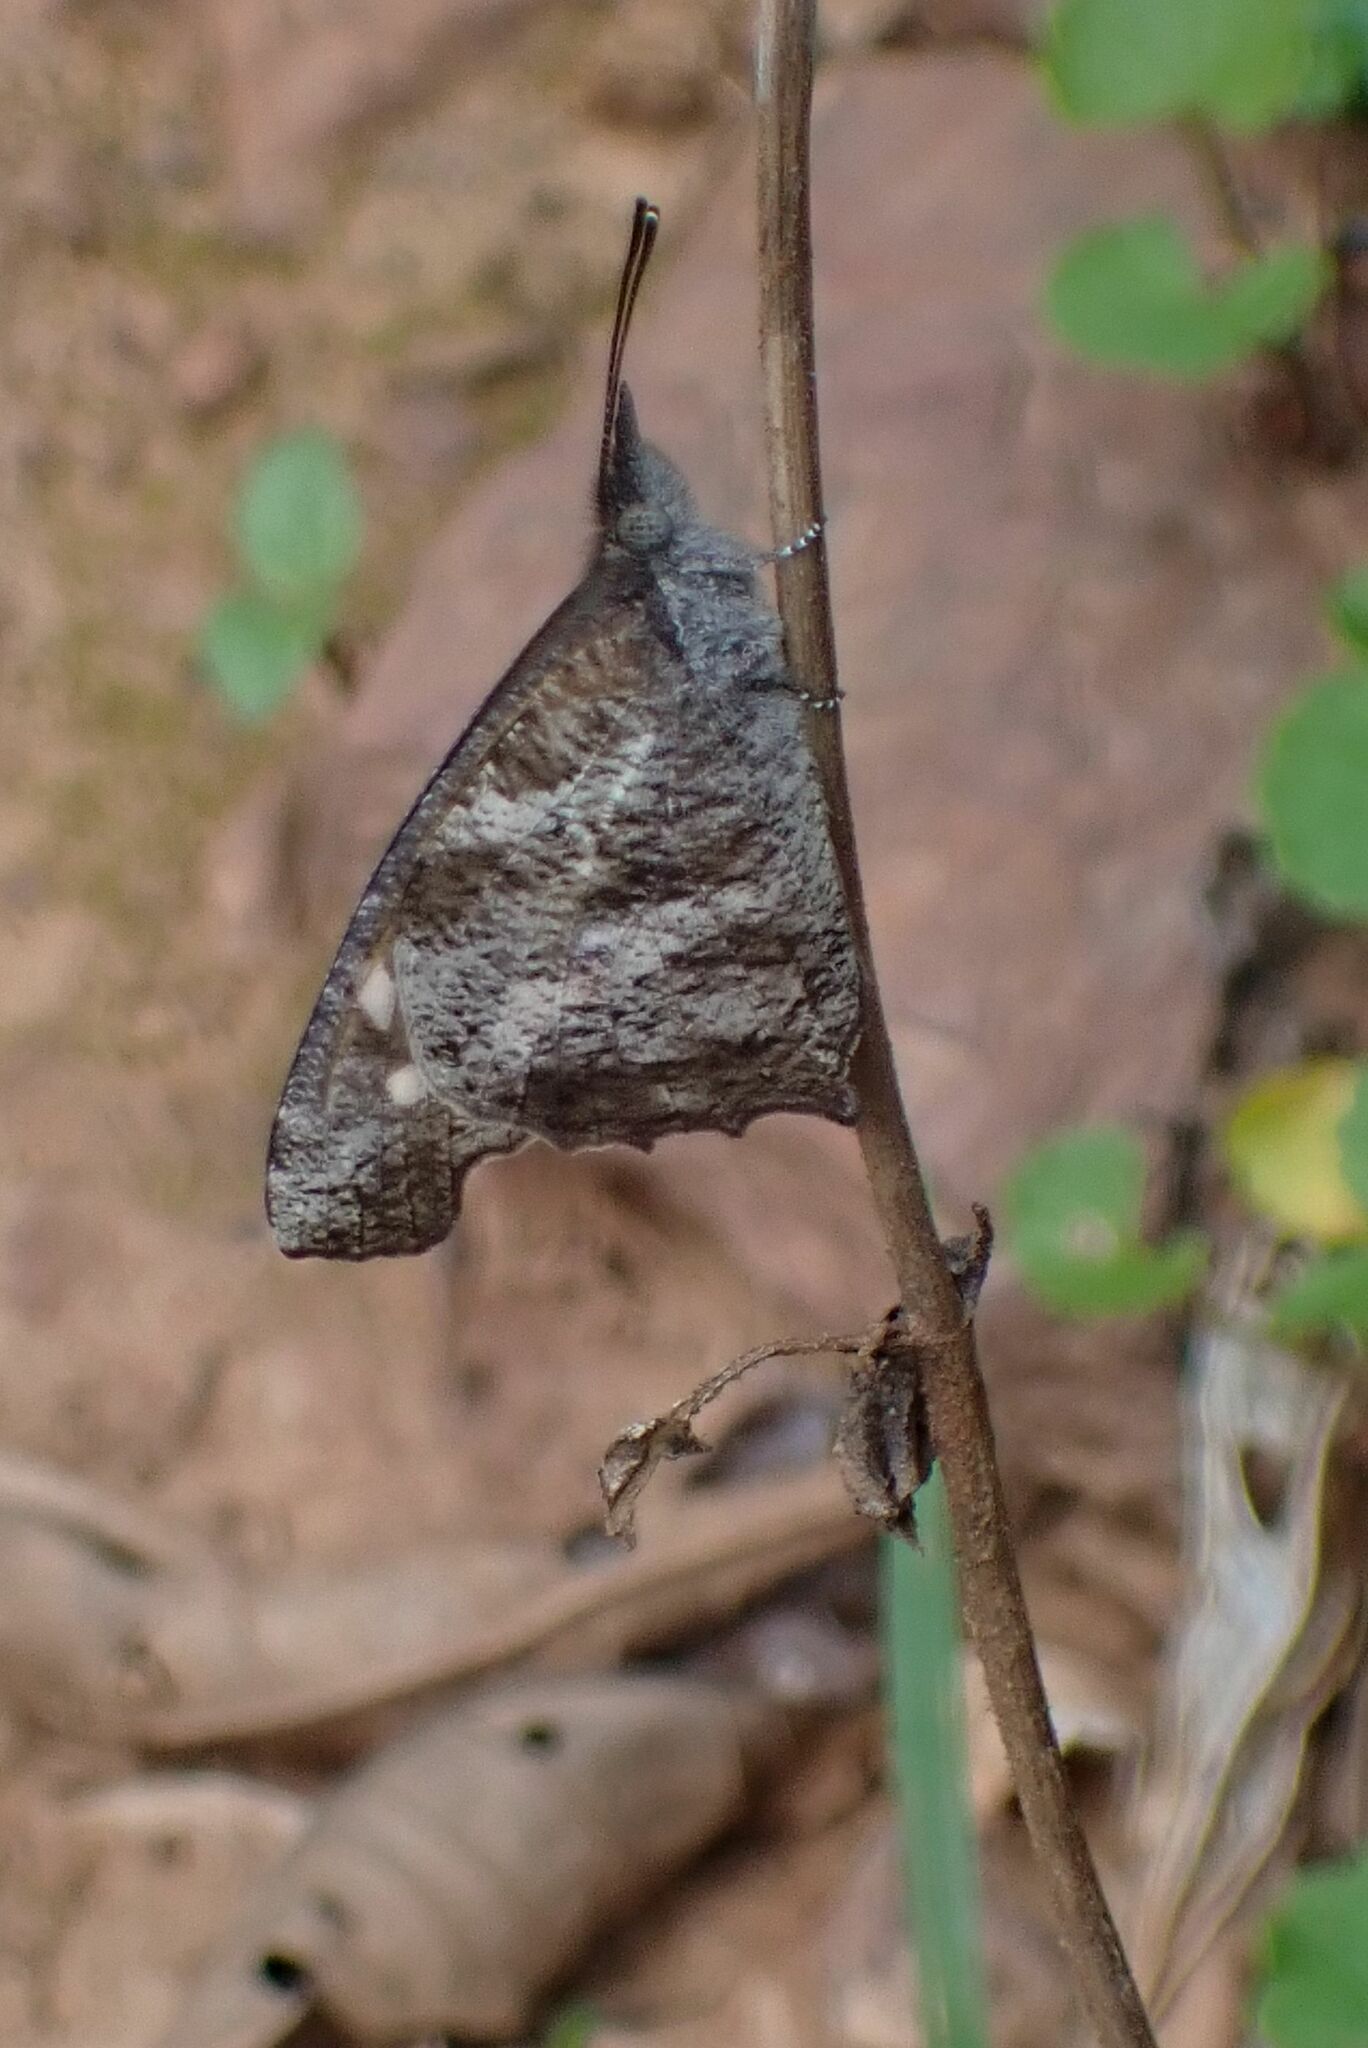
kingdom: Animalia
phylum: Arthropoda
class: Insecta
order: Lepidoptera
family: Nymphalidae
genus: Libythea
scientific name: Libythea laius
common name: African snout
